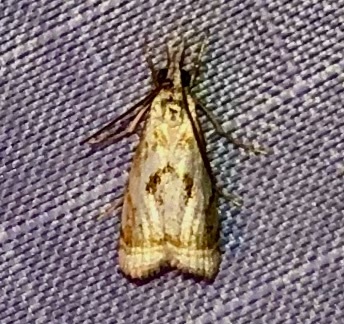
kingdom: Animalia
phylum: Arthropoda
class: Insecta
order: Lepidoptera
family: Crambidae
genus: Microcrambus
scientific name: Microcrambus elegans
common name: Elegant grass-veneer
